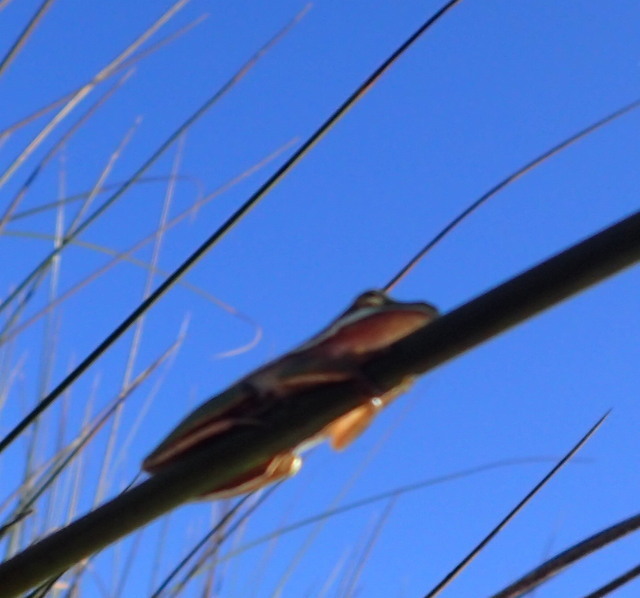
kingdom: Animalia
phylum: Chordata
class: Amphibia
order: Anura
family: Hylidae
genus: Dryophytes
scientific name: Dryophytes cinereus
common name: Green treefrog
